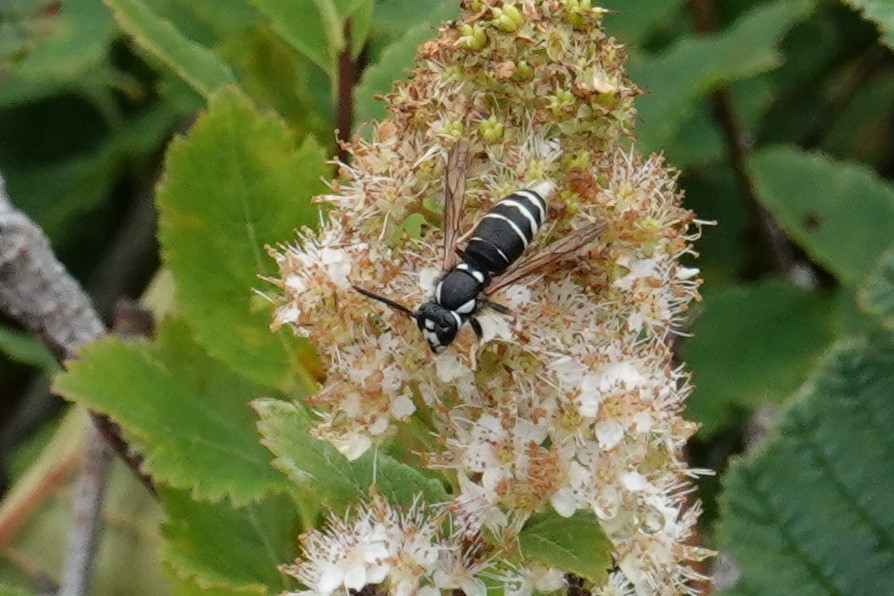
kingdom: Animalia
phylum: Arthropoda
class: Insecta
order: Hymenoptera
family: Vespidae
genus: Vespula
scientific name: Vespula consobrina
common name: Blackjacket
